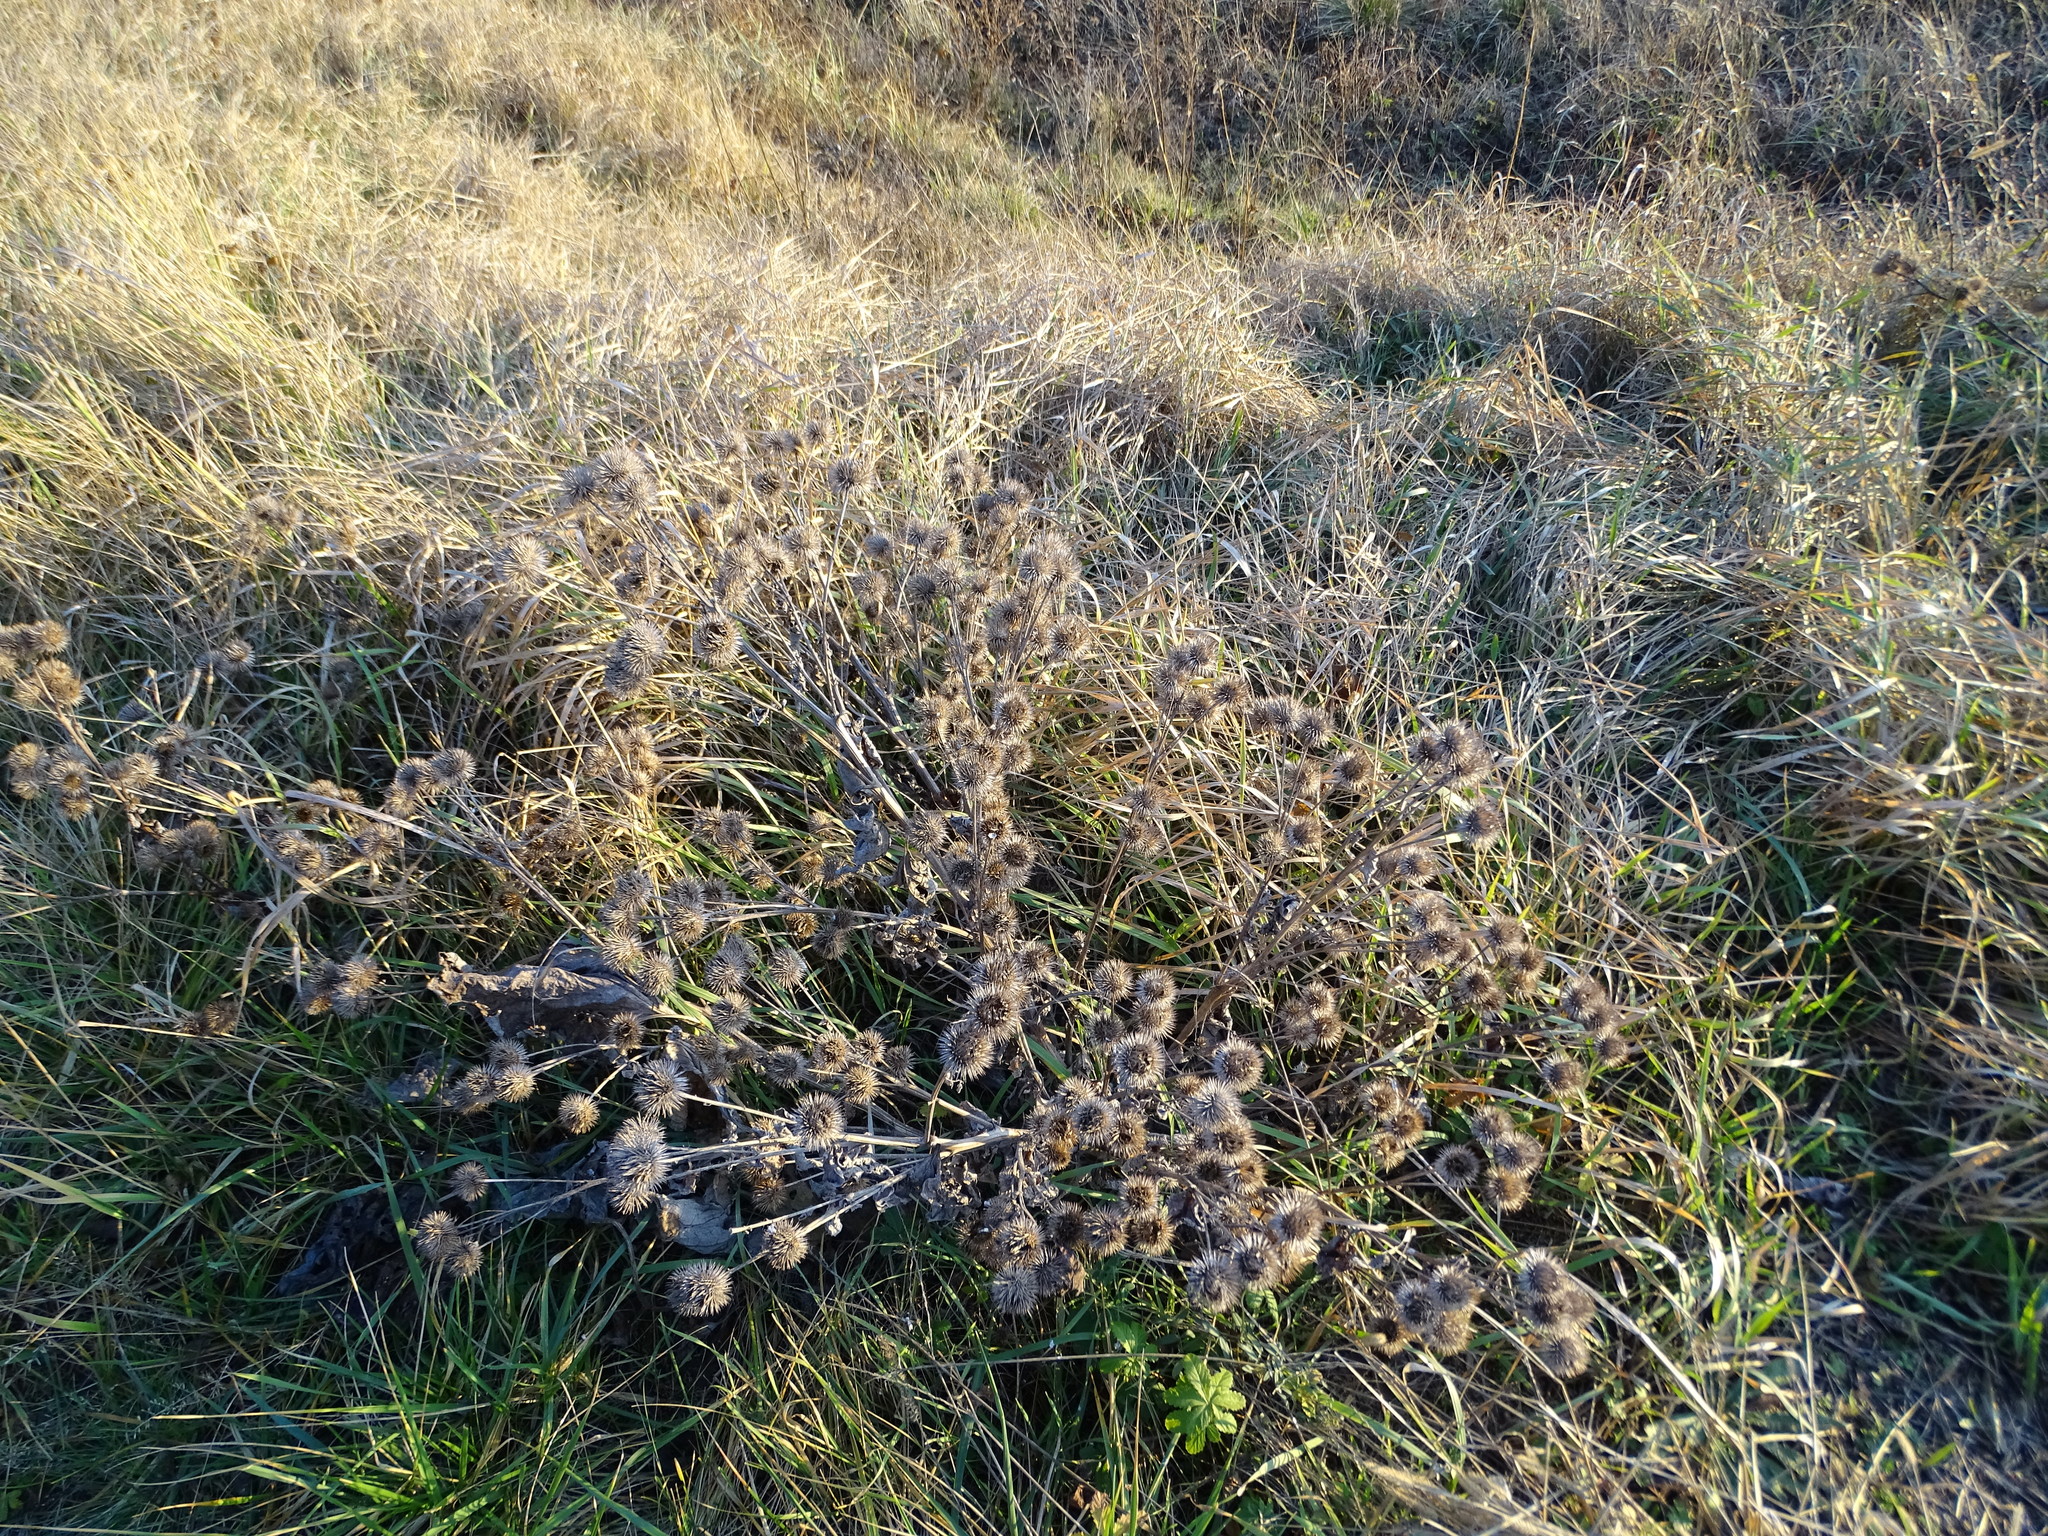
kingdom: Plantae
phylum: Tracheophyta
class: Magnoliopsida
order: Asterales
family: Asteraceae
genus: Arctium
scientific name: Arctium lappa
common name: Greater burdock
